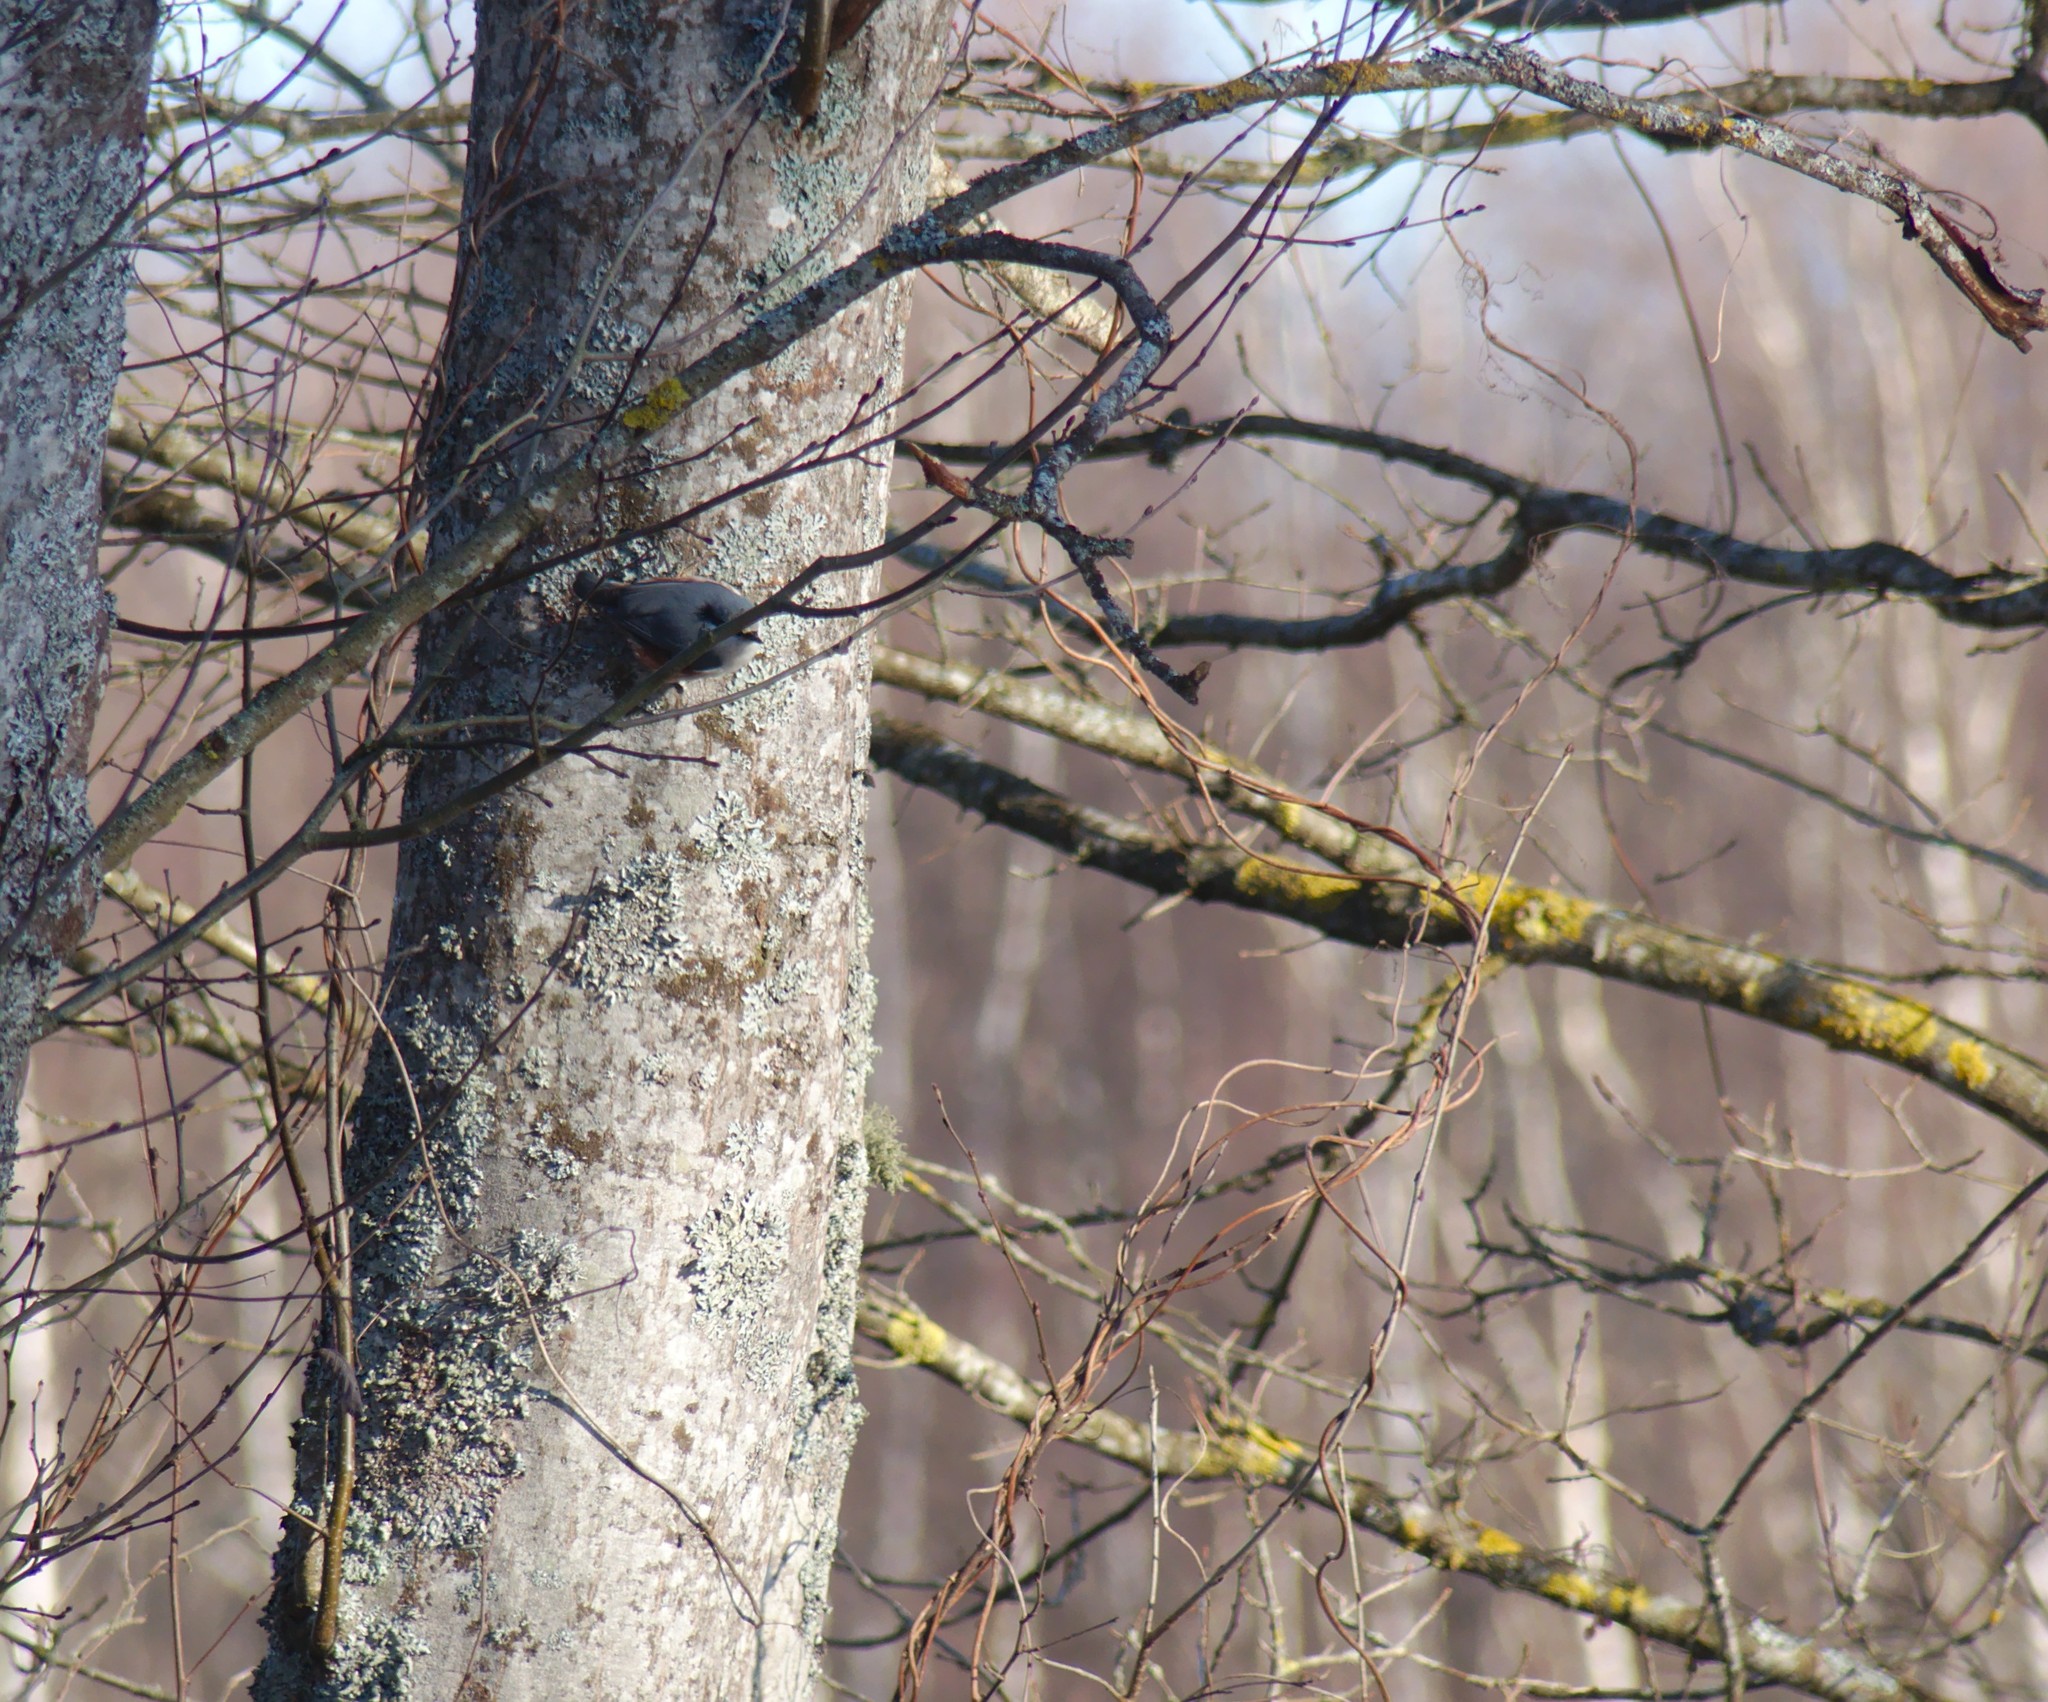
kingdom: Animalia
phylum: Chordata
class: Aves
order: Passeriformes
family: Sittidae
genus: Sitta
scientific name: Sitta europaea
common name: Eurasian nuthatch
